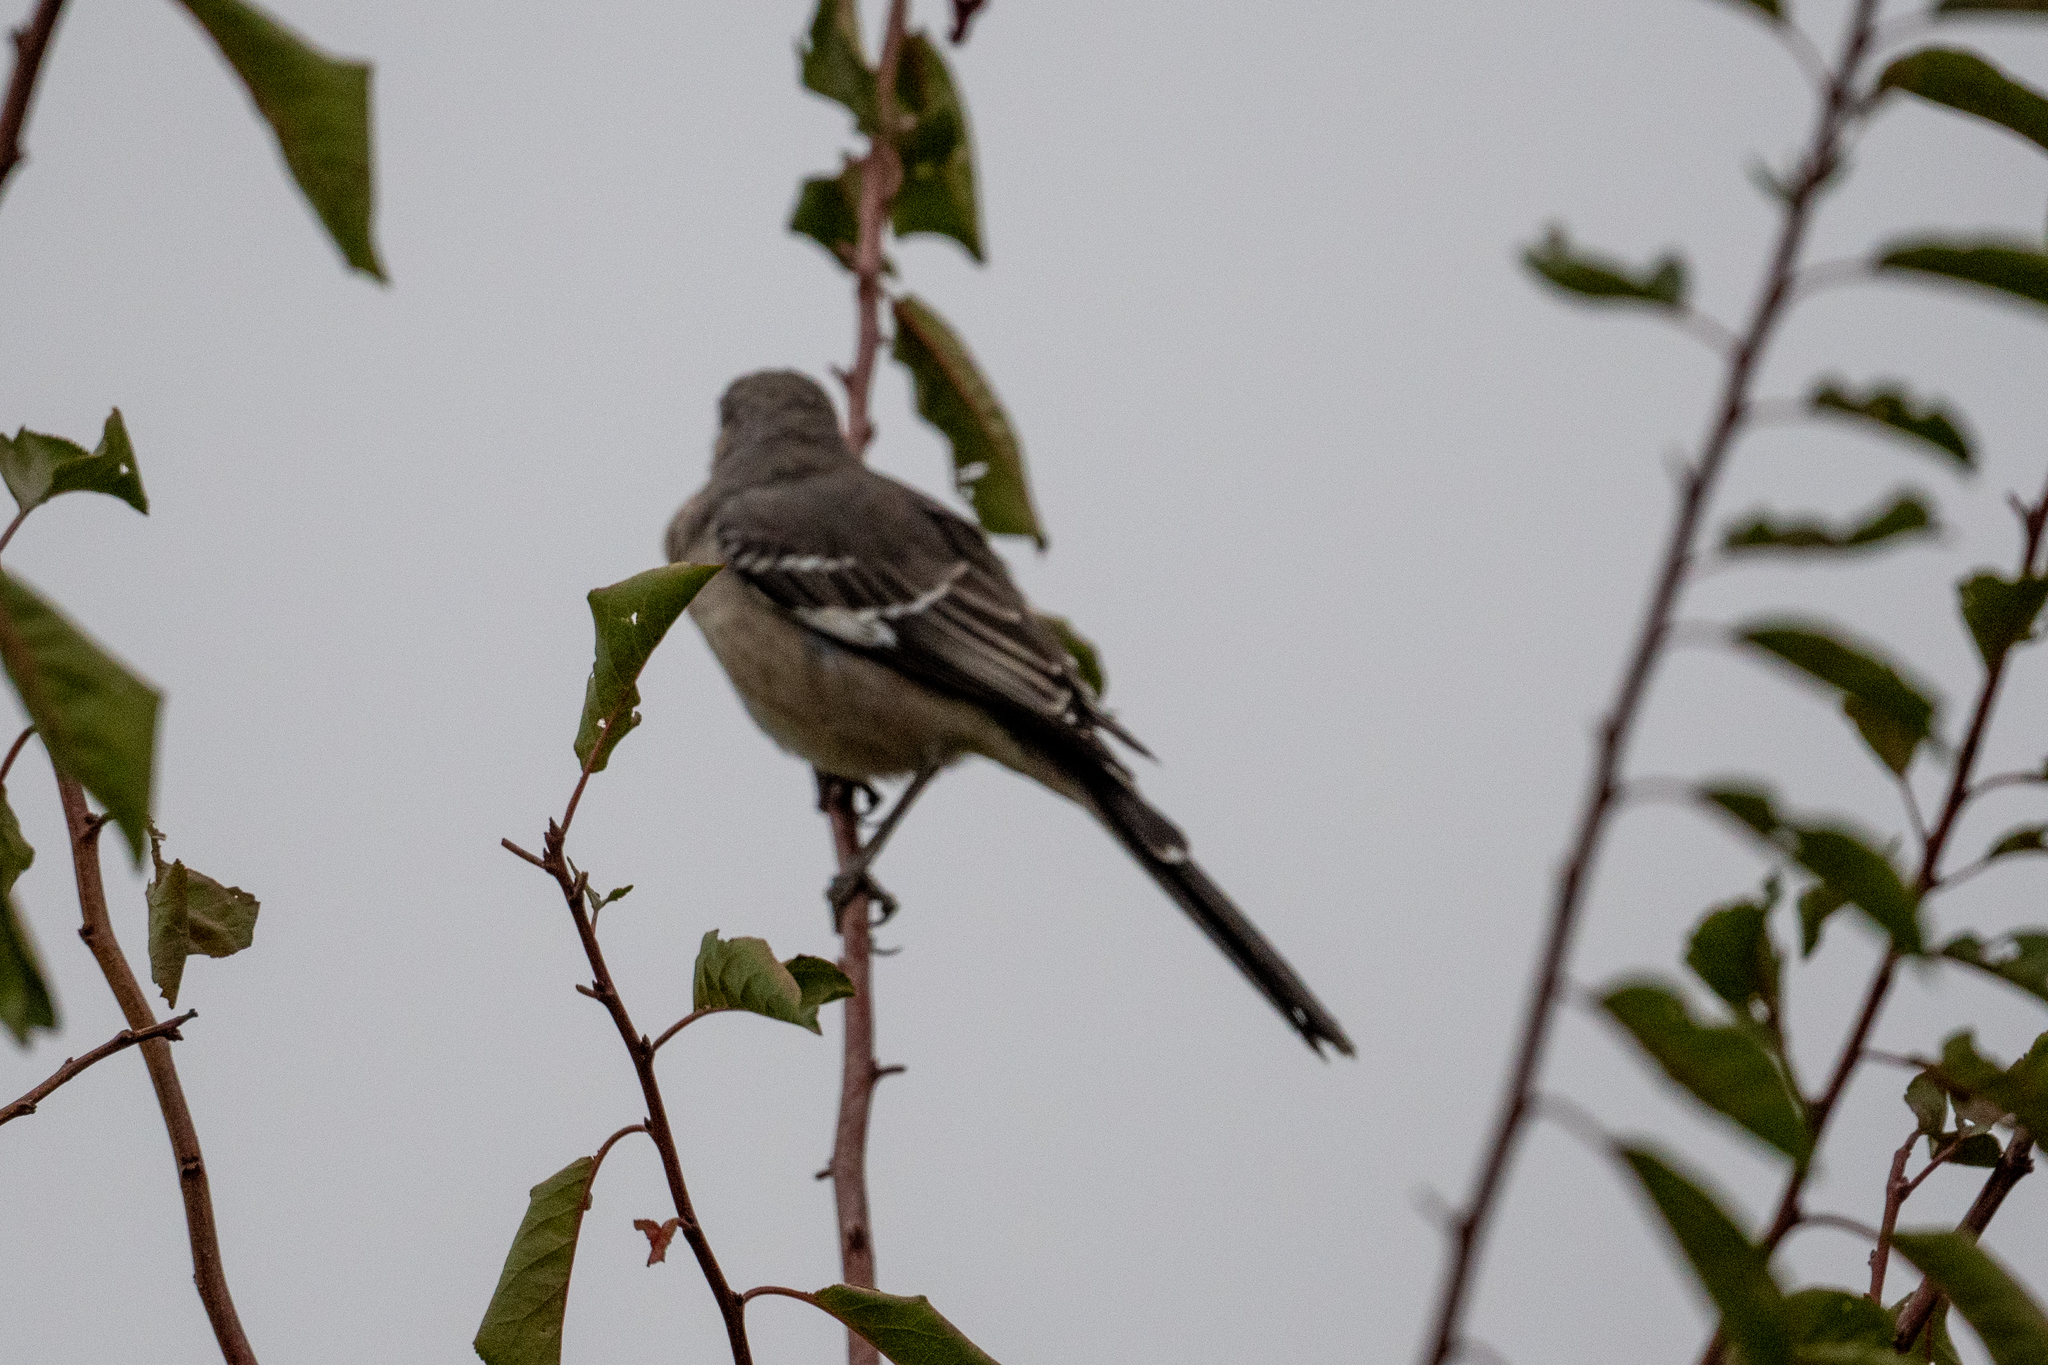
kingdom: Animalia
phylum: Chordata
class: Aves
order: Passeriformes
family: Mimidae
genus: Mimus
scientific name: Mimus polyglottos
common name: Northern mockingbird
